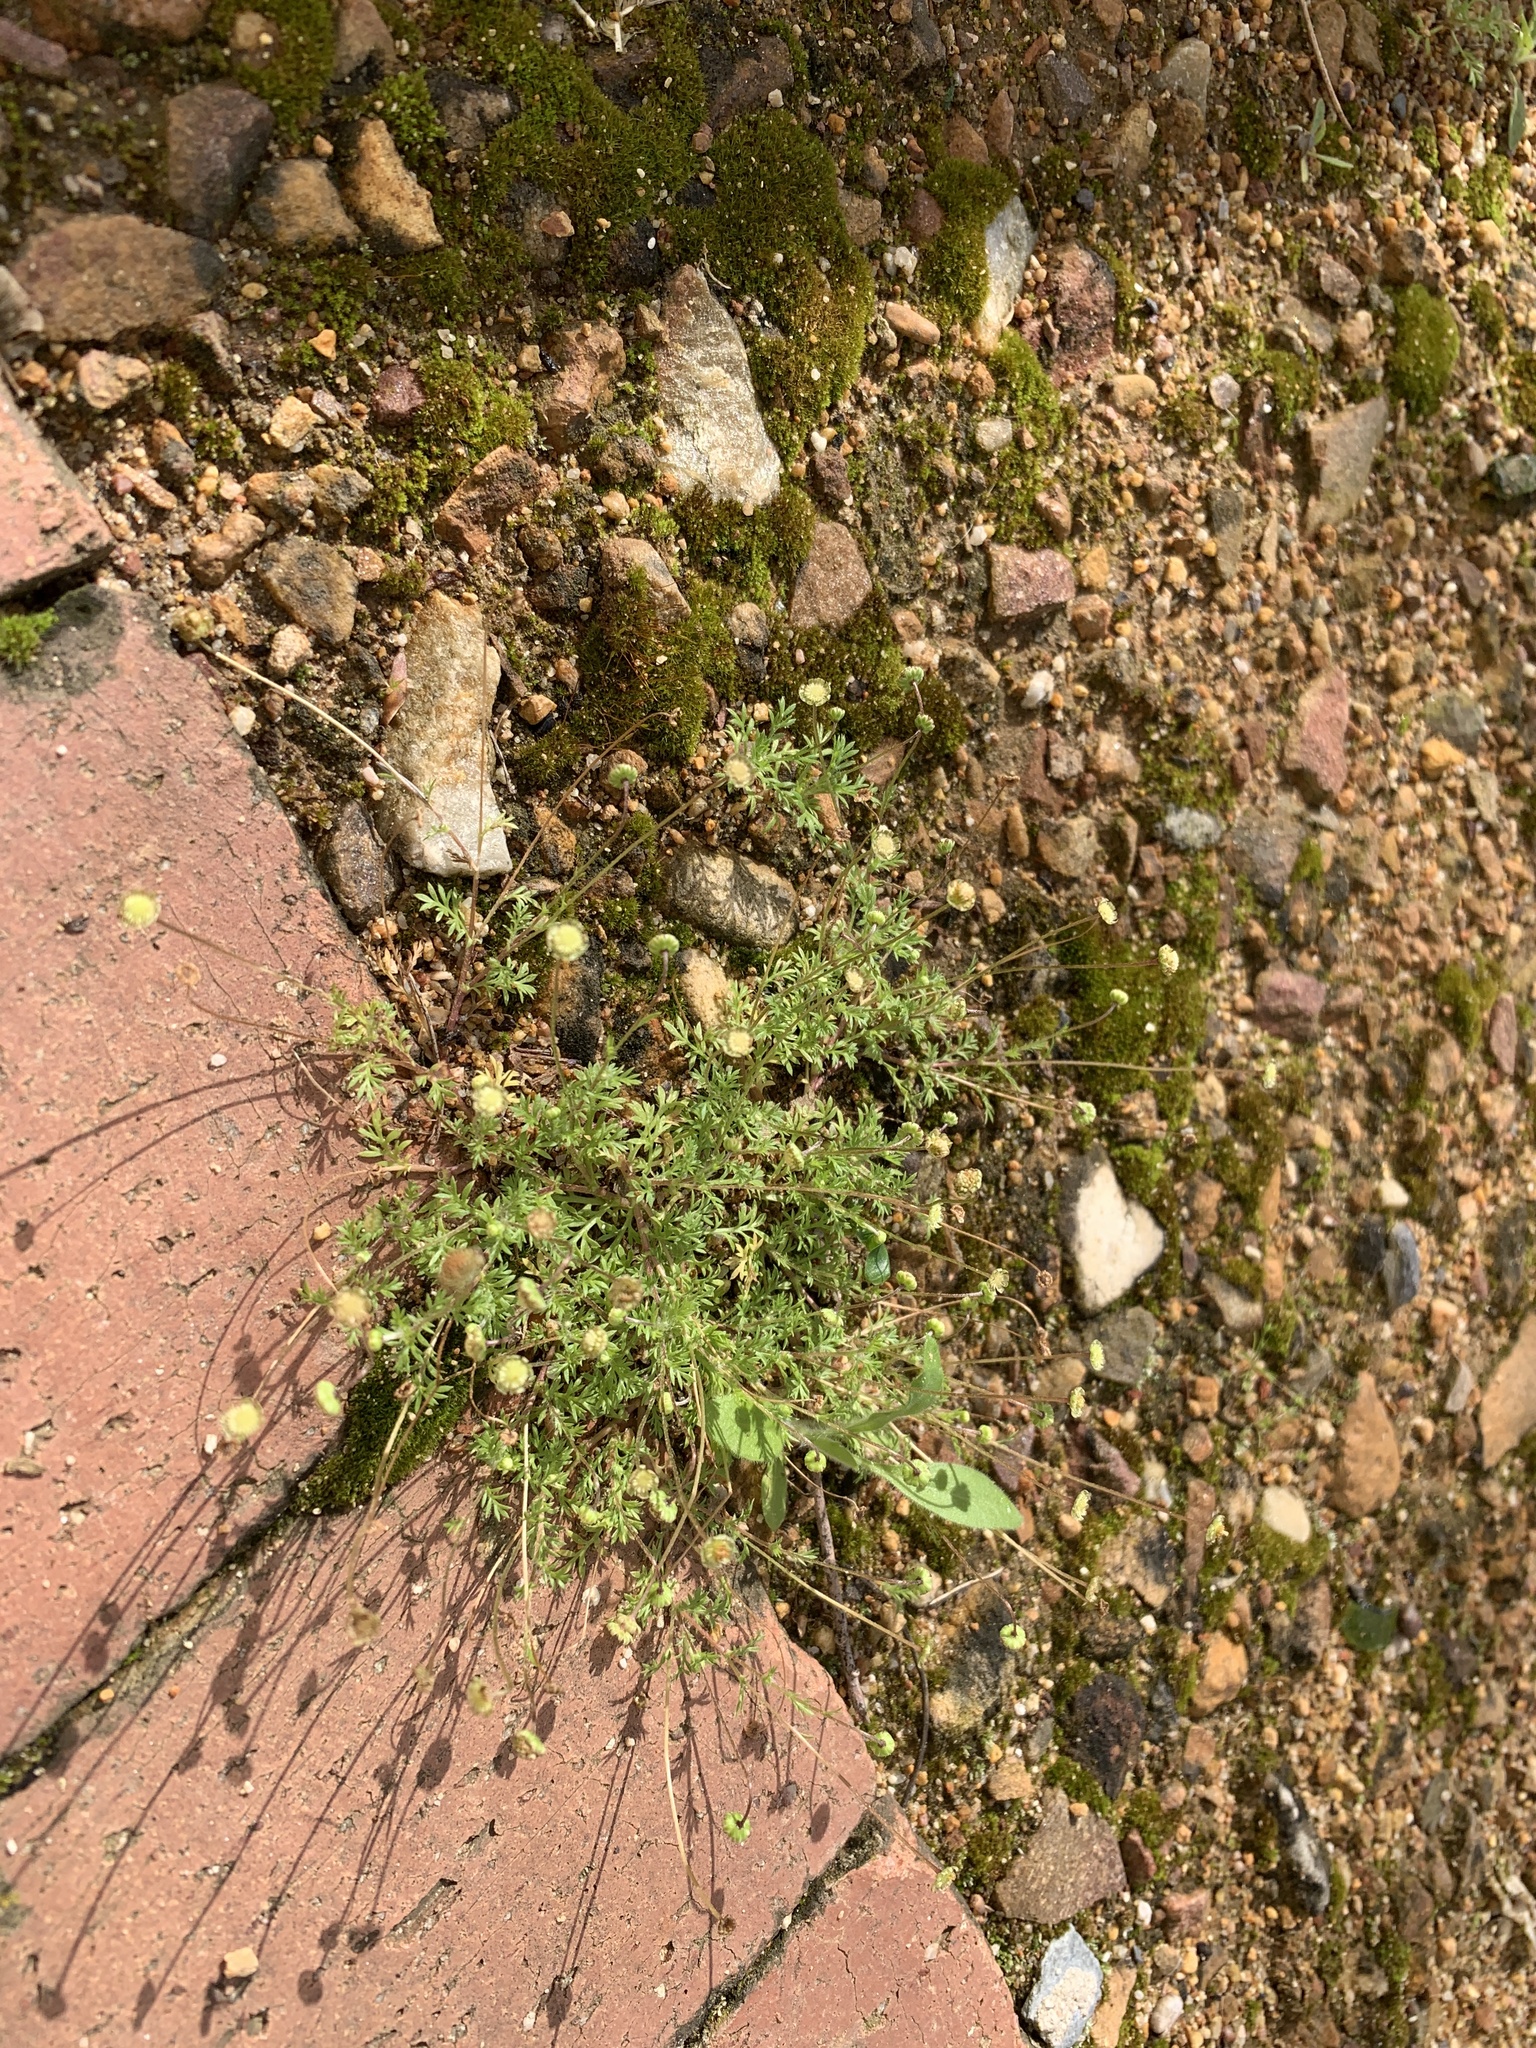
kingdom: Plantae
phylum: Tracheophyta
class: Magnoliopsida
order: Asterales
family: Asteraceae
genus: Cotula
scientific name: Cotula australis
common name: Australian waterbuttons
